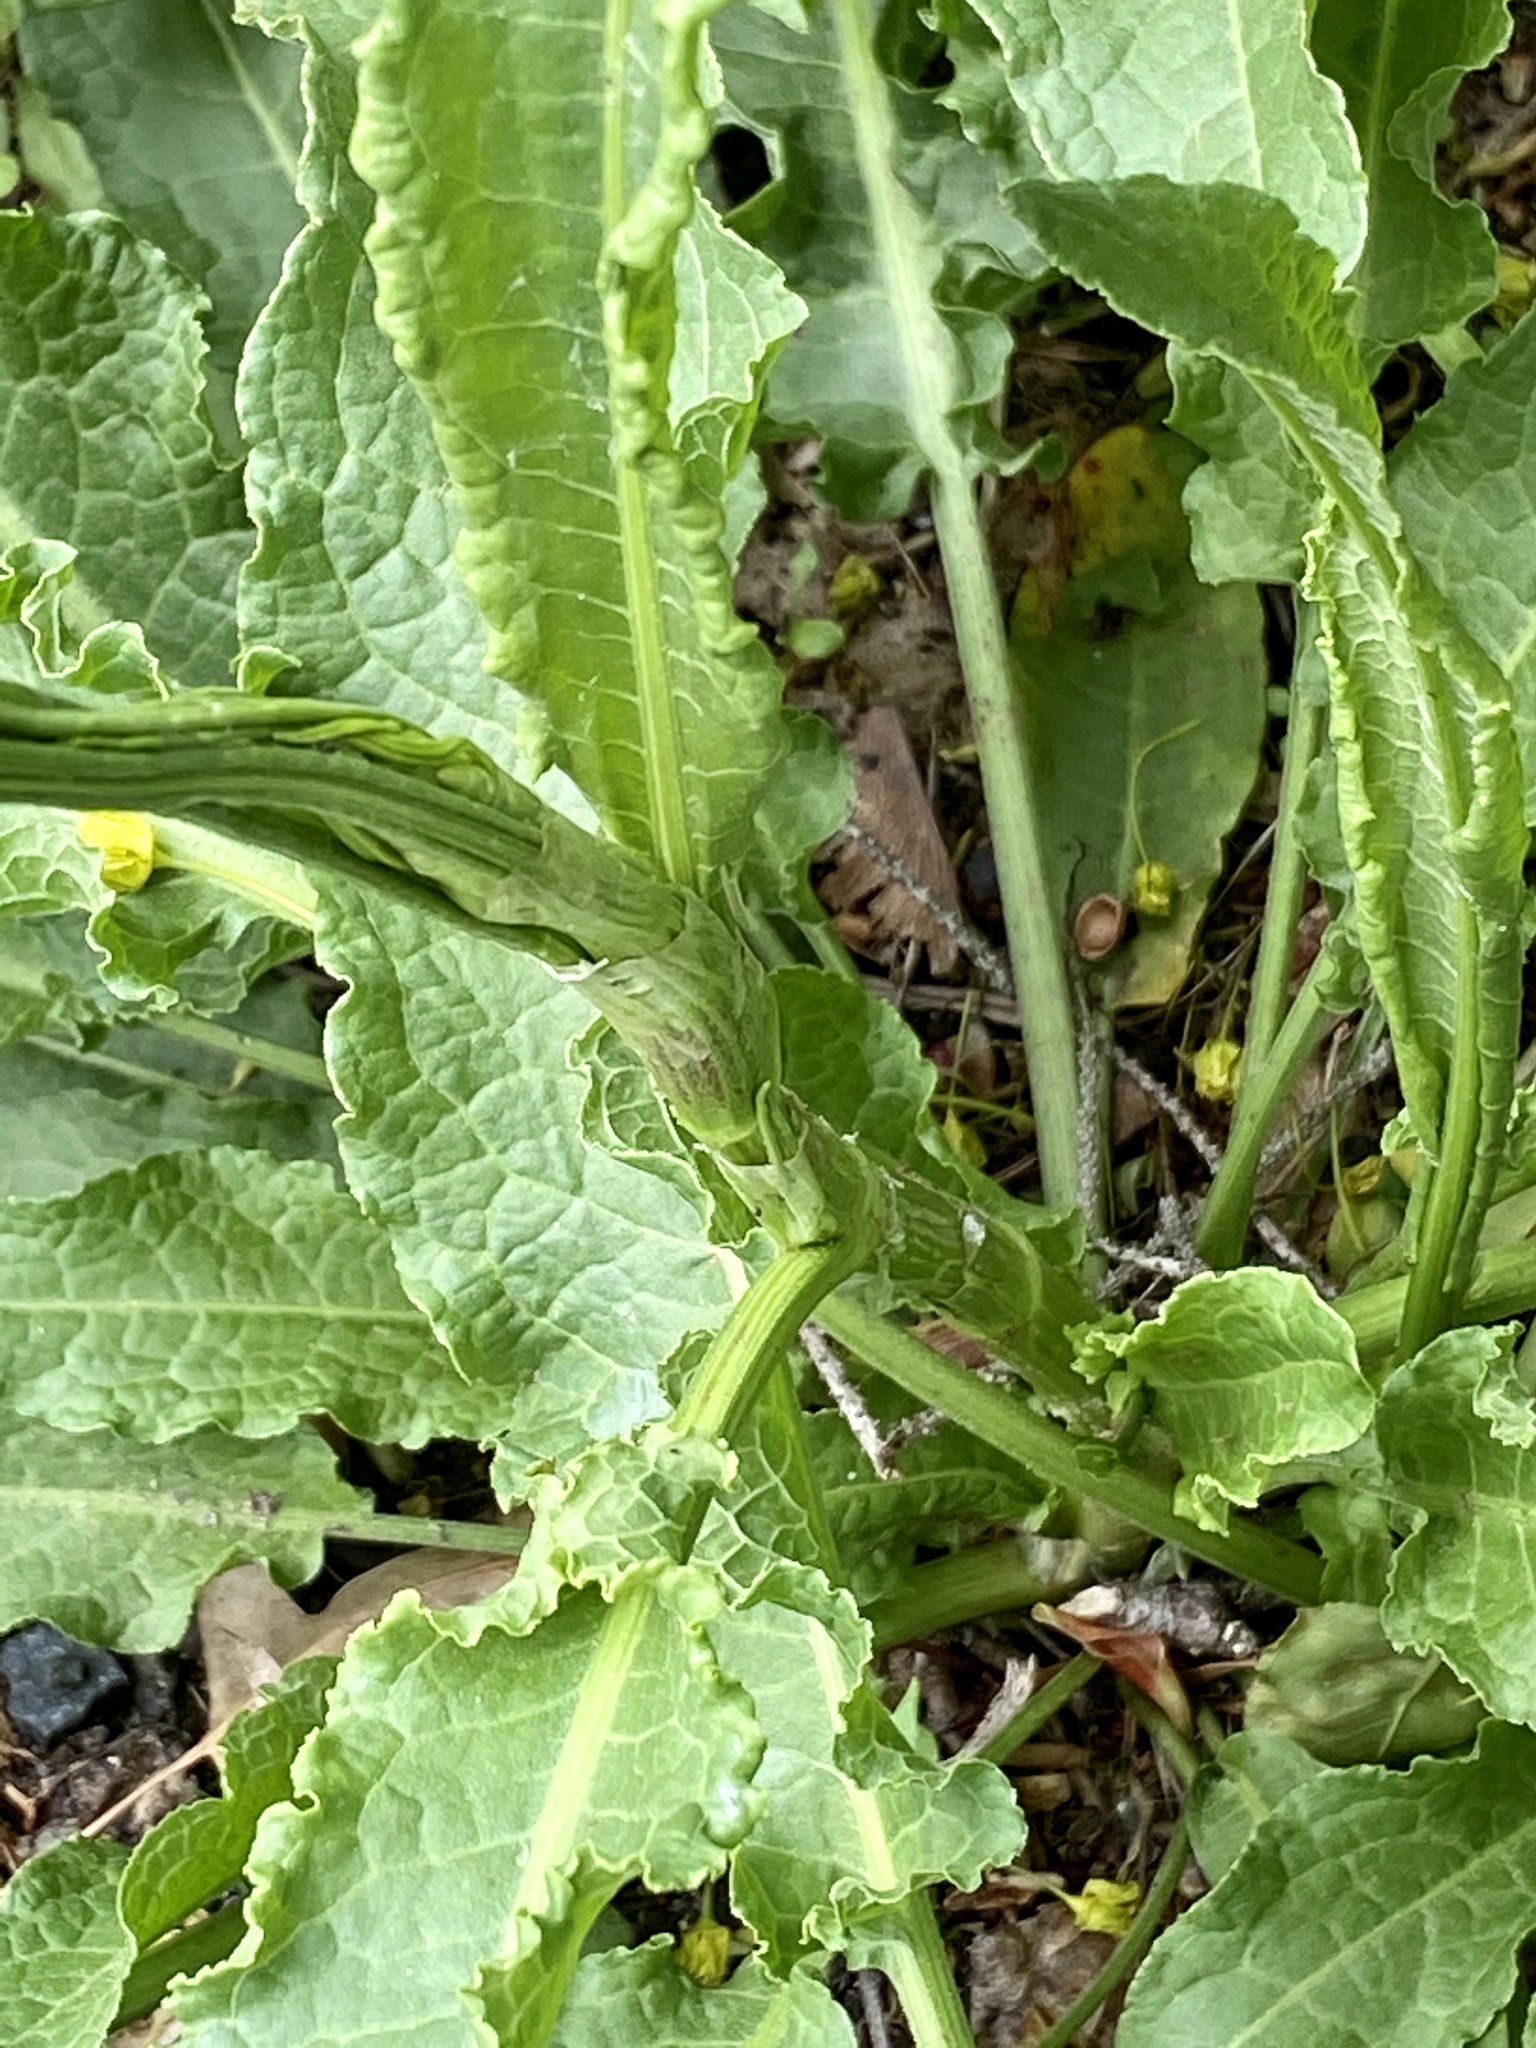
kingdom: Plantae
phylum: Tracheophyta
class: Magnoliopsida
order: Caryophyllales
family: Polygonaceae
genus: Rumex
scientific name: Rumex crispus
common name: Curled dock
